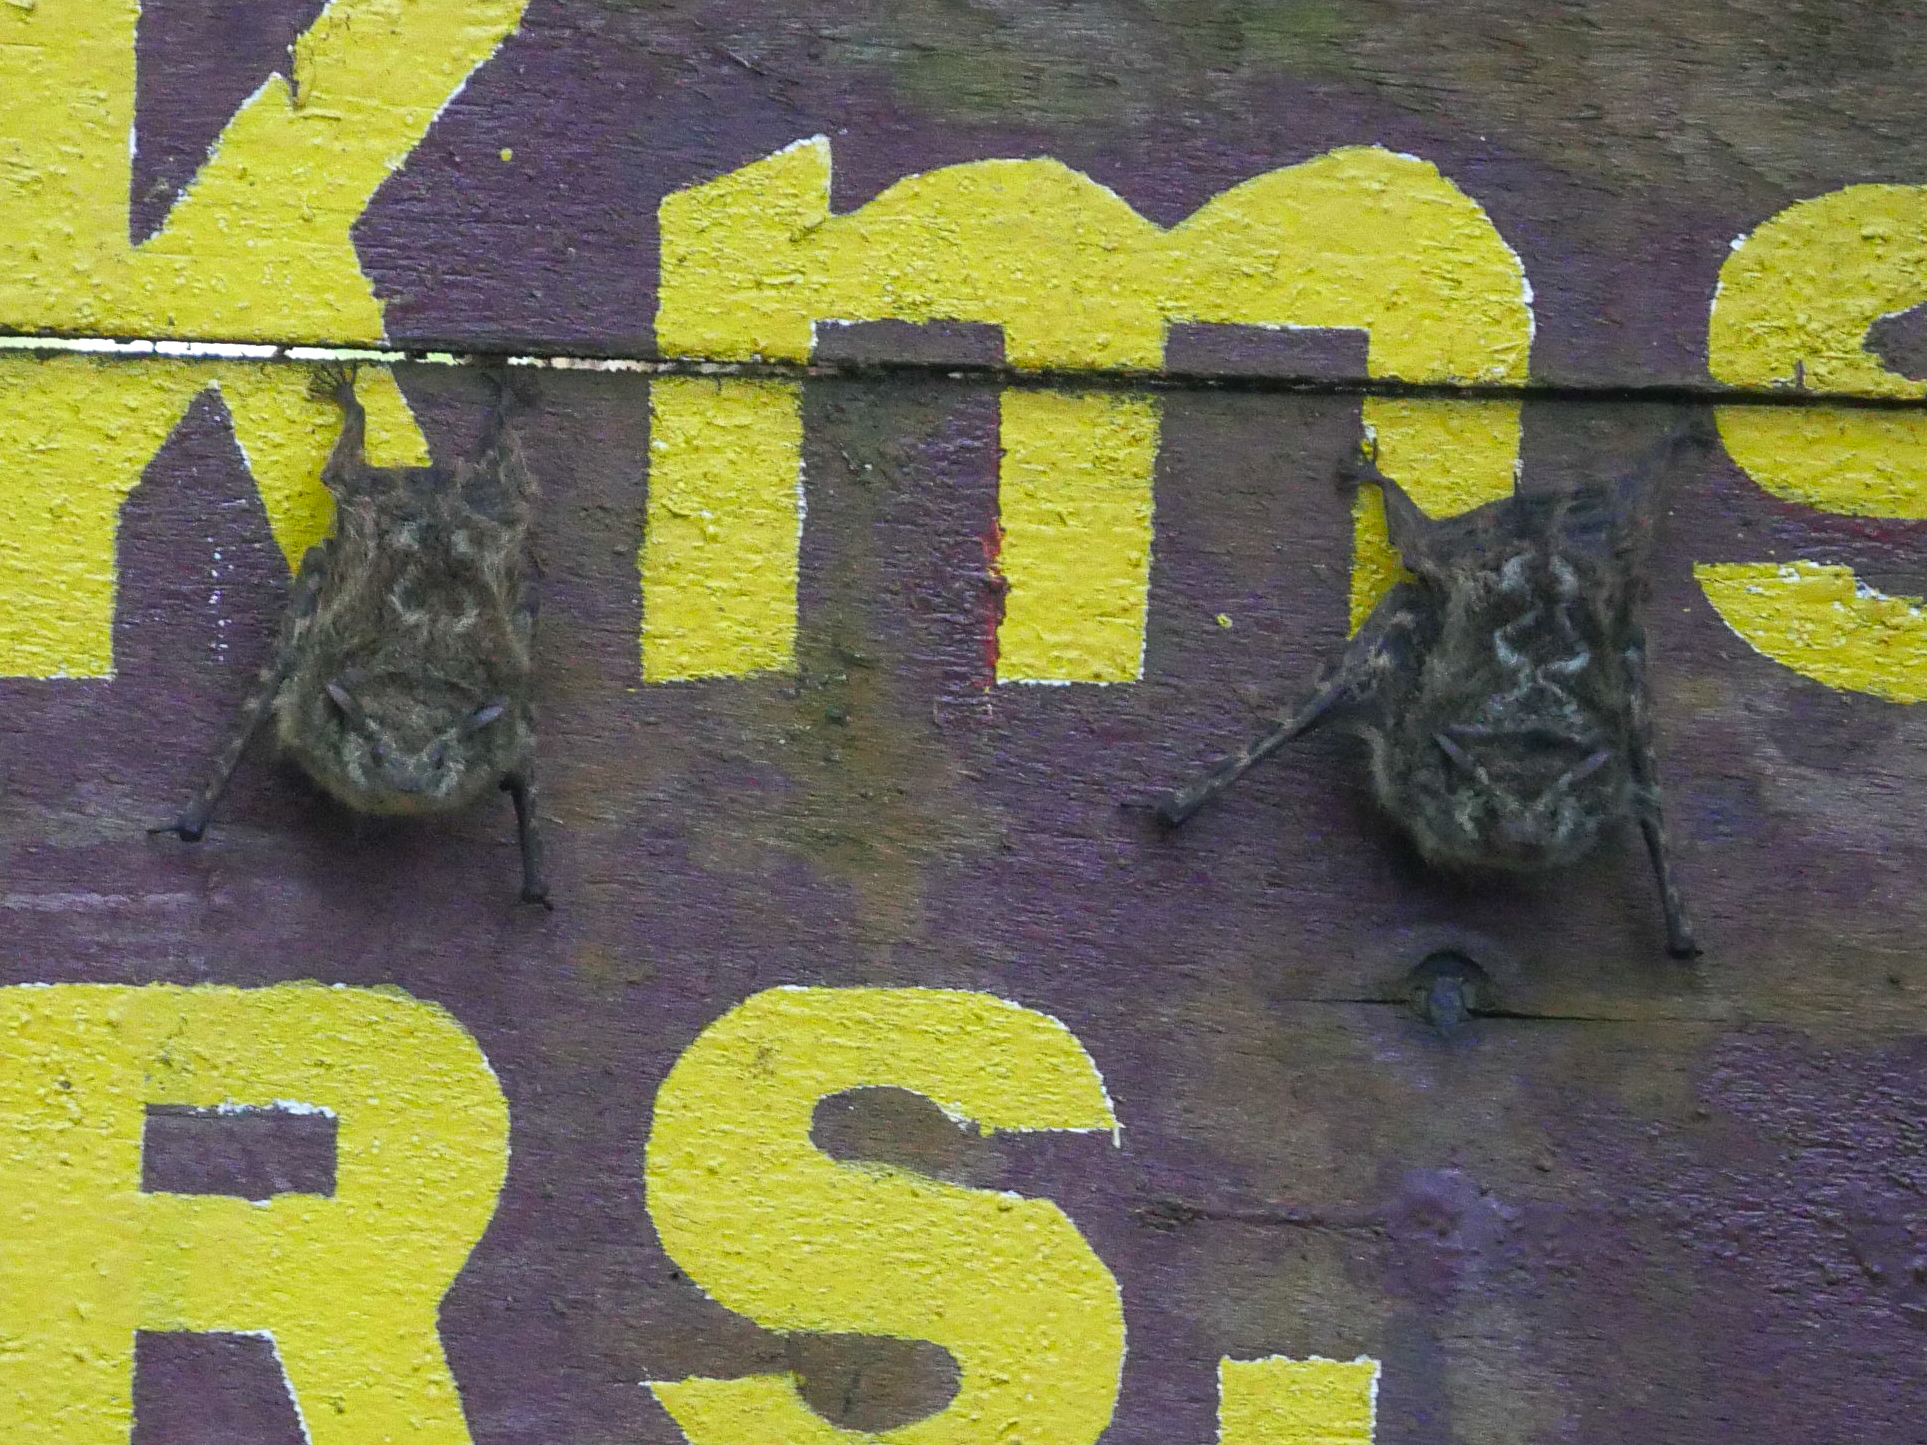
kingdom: Animalia
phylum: Chordata
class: Mammalia
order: Chiroptera
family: Emballonuridae
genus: Rhynchonycteris
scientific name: Rhynchonycteris naso
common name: Proboscis bat
